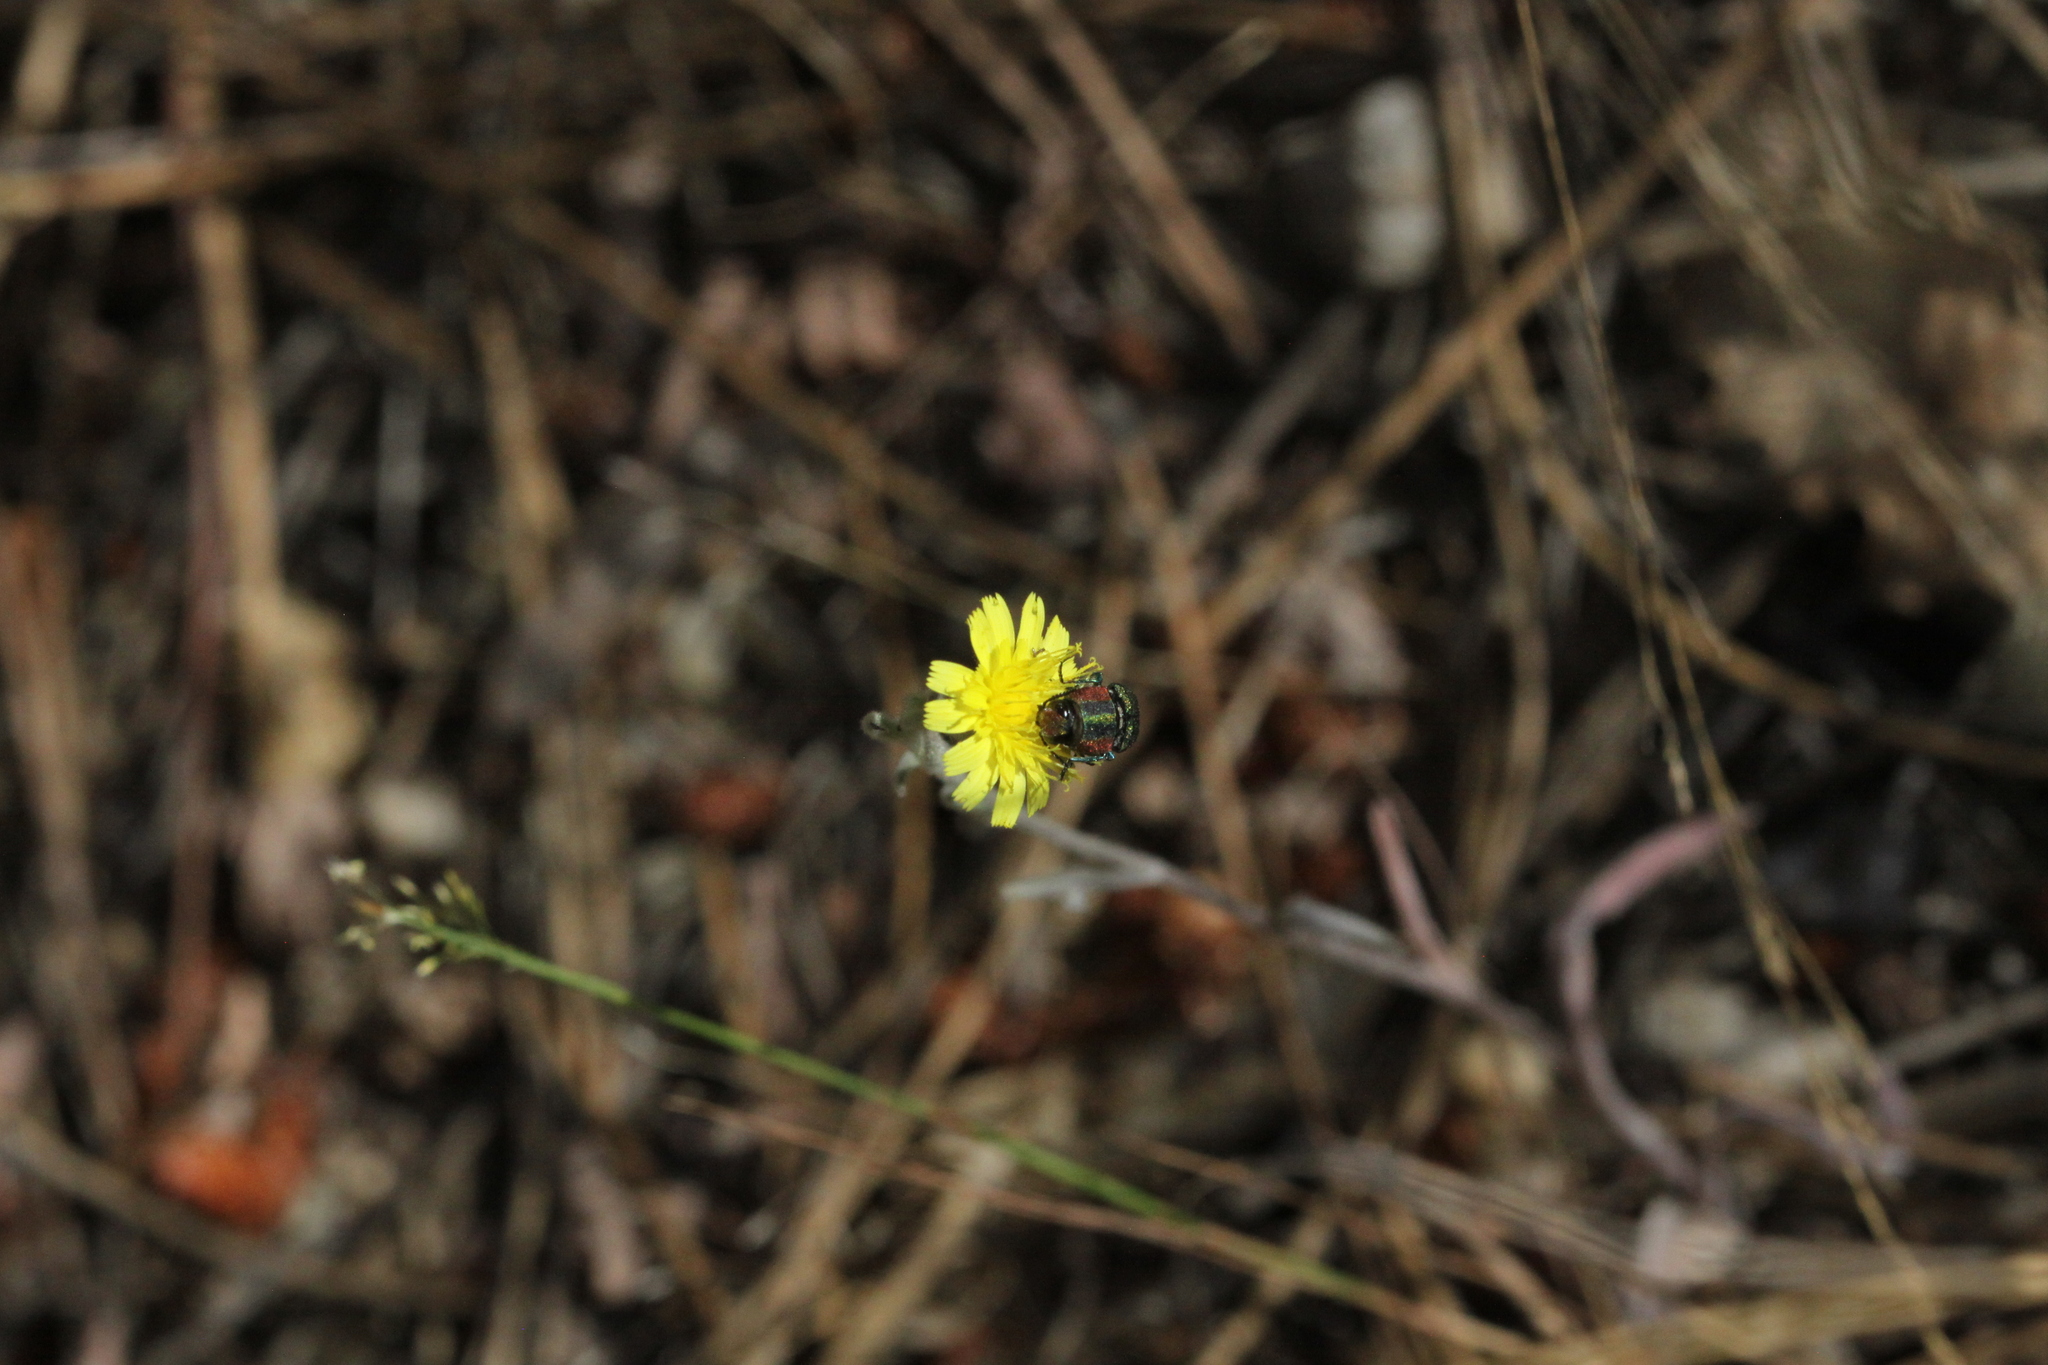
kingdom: Animalia
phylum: Arthropoda
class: Insecta
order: Coleoptera
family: Buprestidae
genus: Anthaxia
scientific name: Anthaxia hungarica
